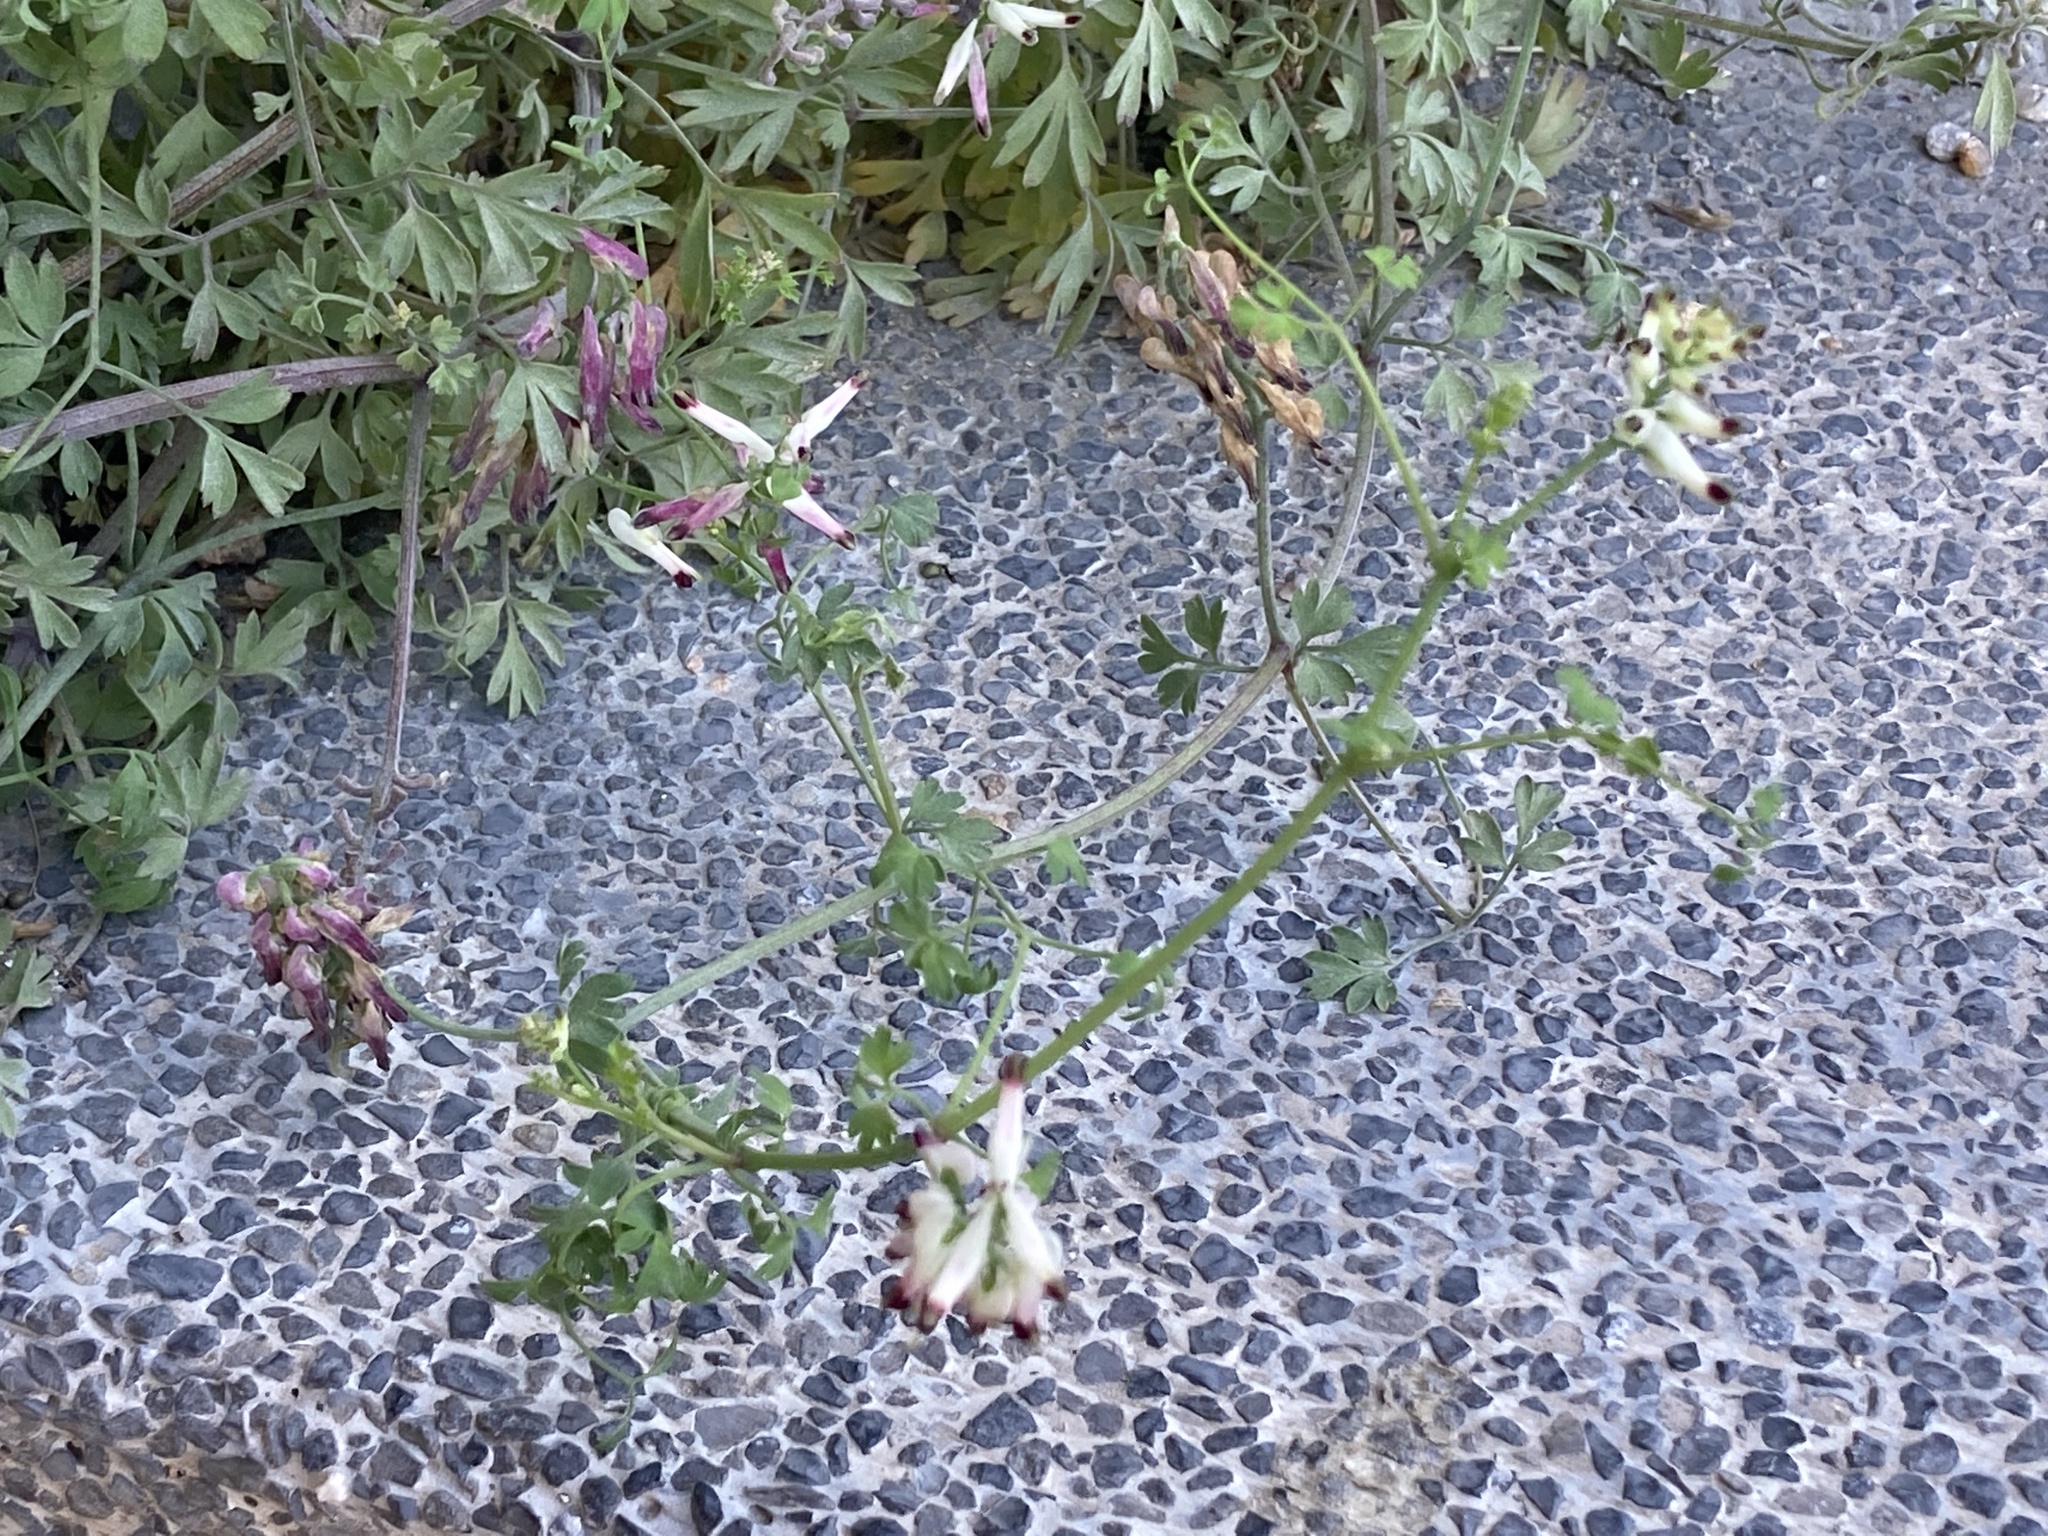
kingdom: Plantae
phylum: Tracheophyta
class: Magnoliopsida
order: Ranunculales
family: Papaveraceae
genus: Fumaria
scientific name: Fumaria capreolata
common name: White ramping-fumitory
